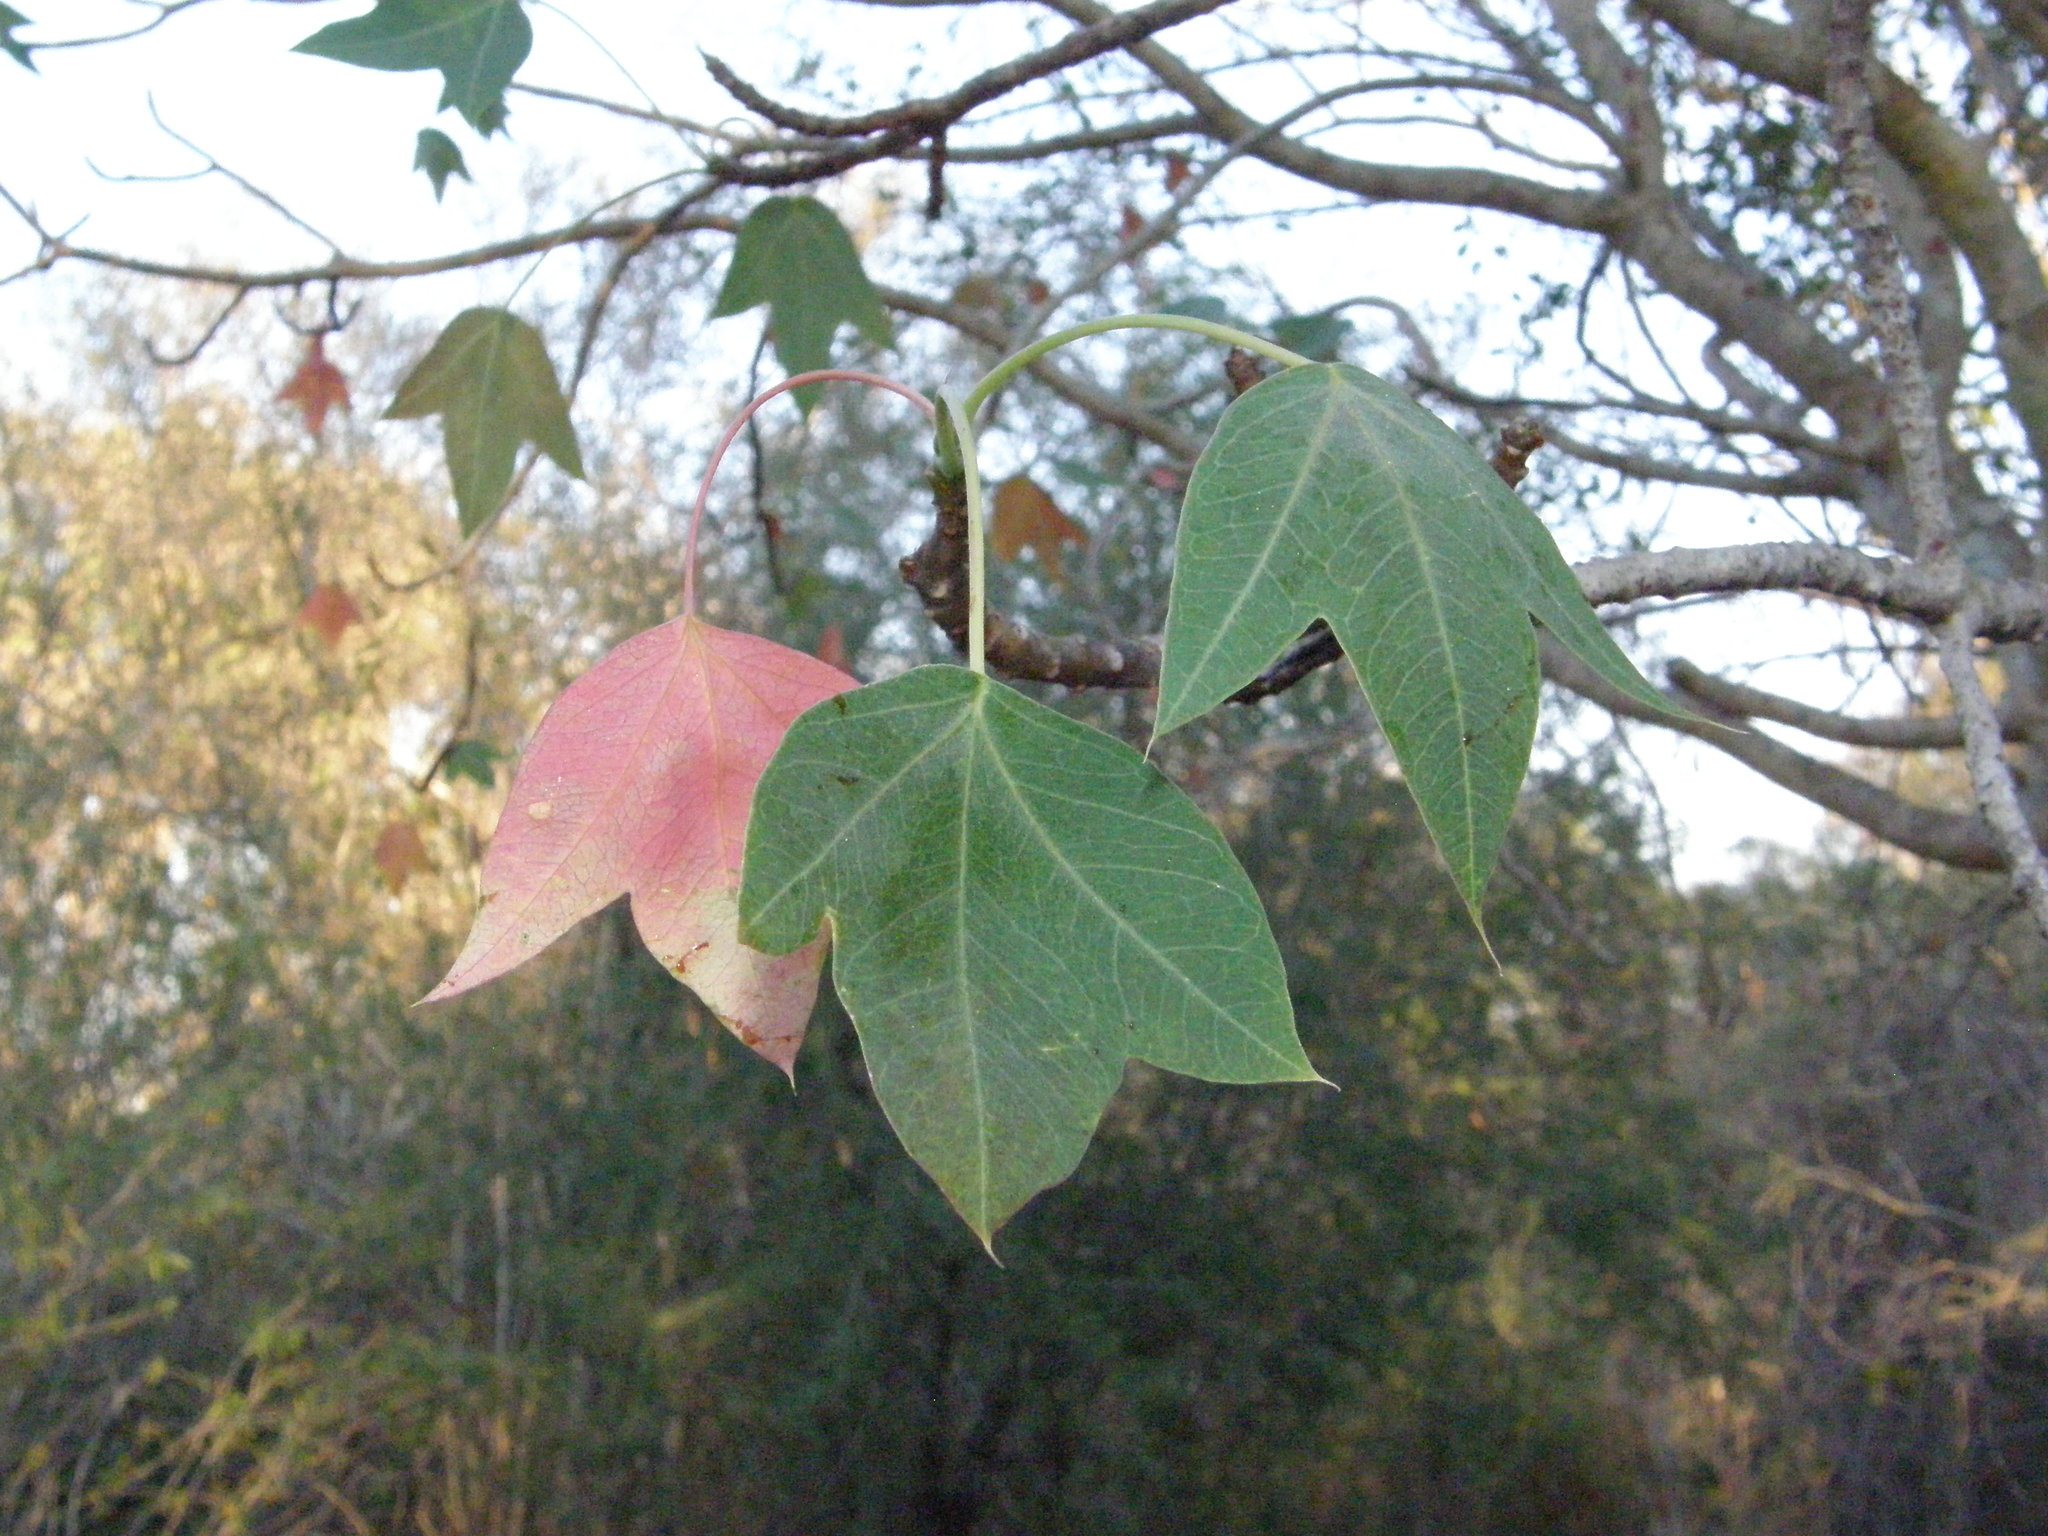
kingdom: Plantae
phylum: Tracheophyta
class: Magnoliopsida
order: Malpighiales
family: Euphorbiaceae
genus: Jatropha
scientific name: Jatropha mahafalensis
